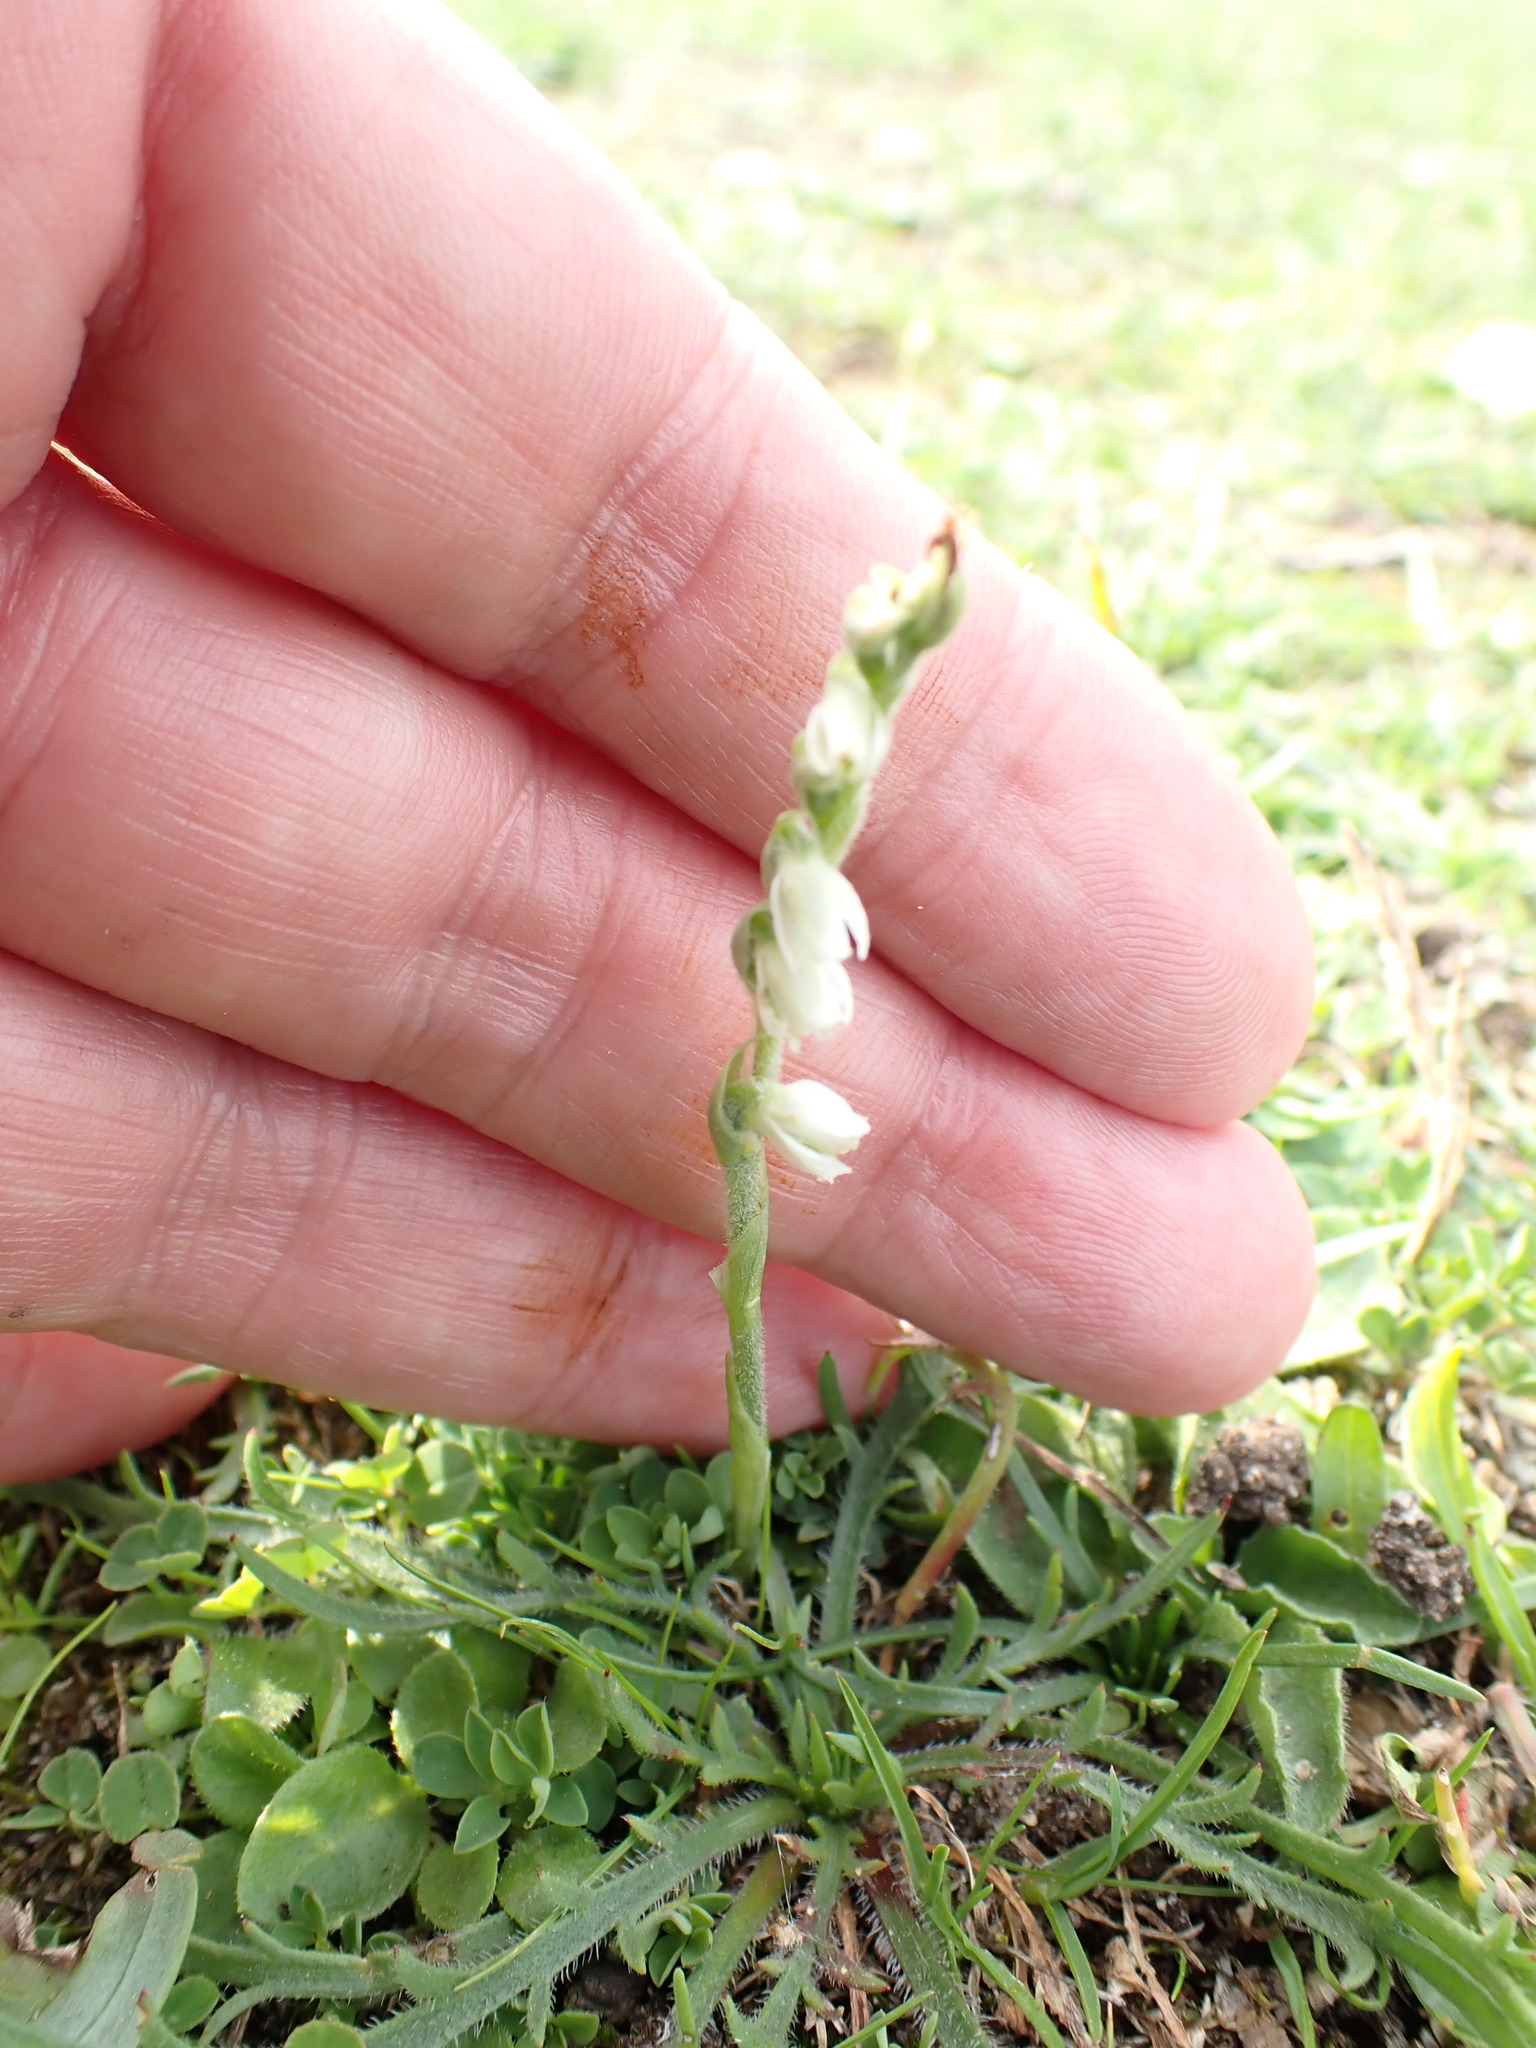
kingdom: Plantae
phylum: Tracheophyta
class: Liliopsida
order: Asparagales
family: Orchidaceae
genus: Spiranthes
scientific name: Spiranthes spiralis
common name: Autumn lady's-tresses
